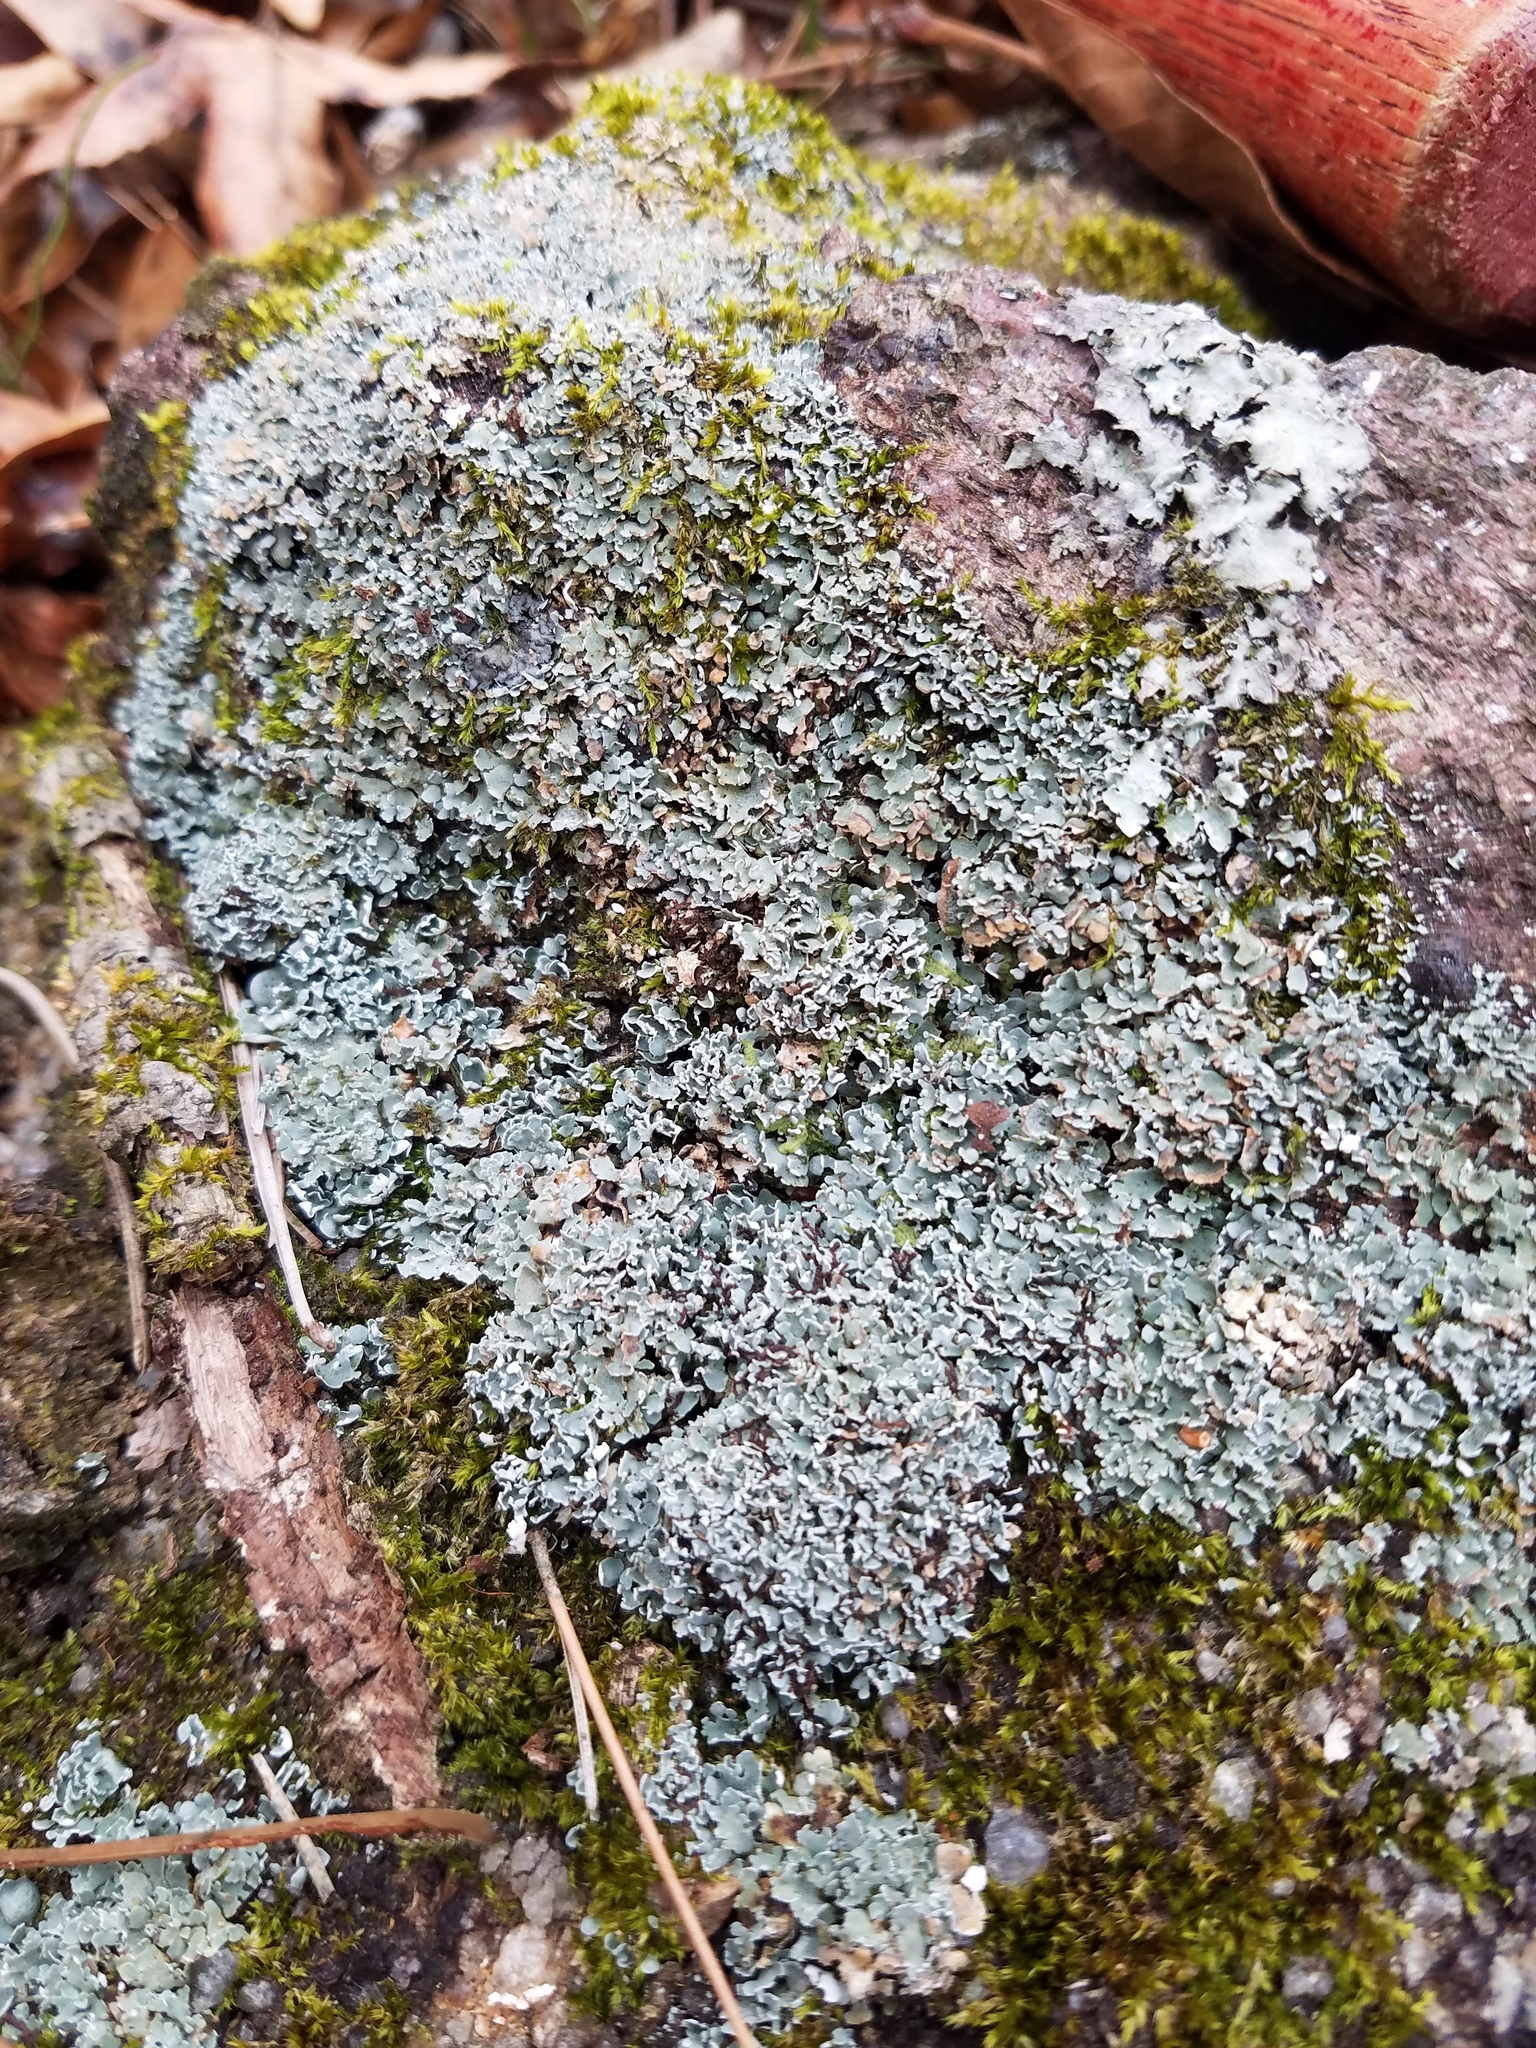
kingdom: Fungi
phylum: Ascomycota
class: Lecanoromycetes
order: Lecanorales
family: Cladoniaceae
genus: Cladonia
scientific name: Cladonia petrophila
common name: Rock-loving cladonia
